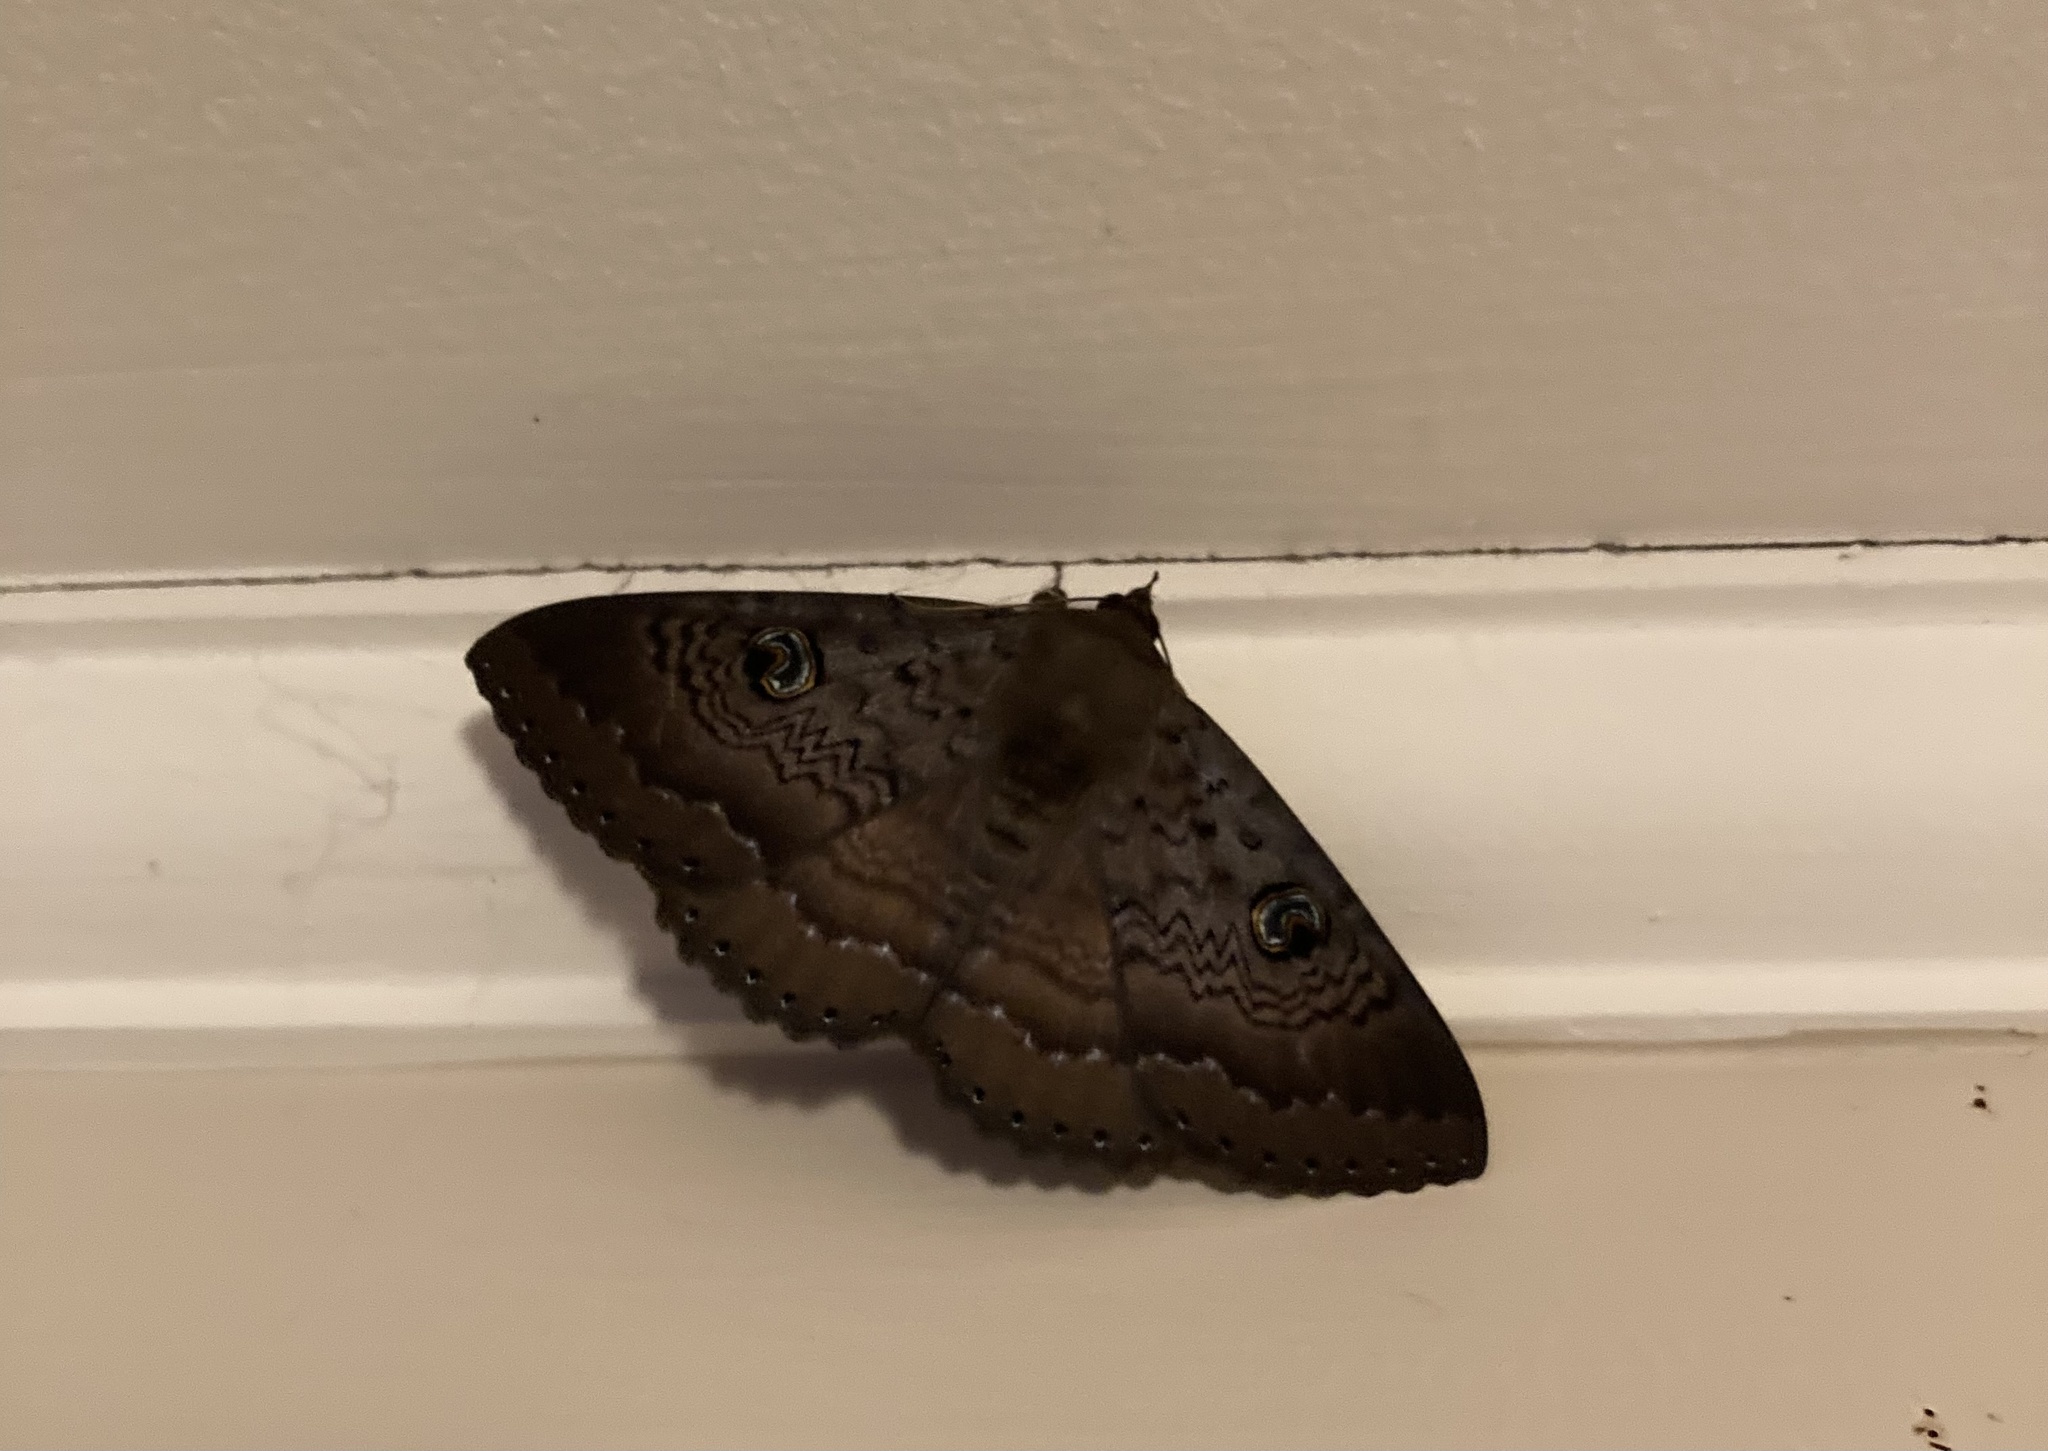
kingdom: Animalia
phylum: Arthropoda
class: Insecta
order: Lepidoptera
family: Erebidae
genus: Dasypodia
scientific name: Dasypodia cymatodes
